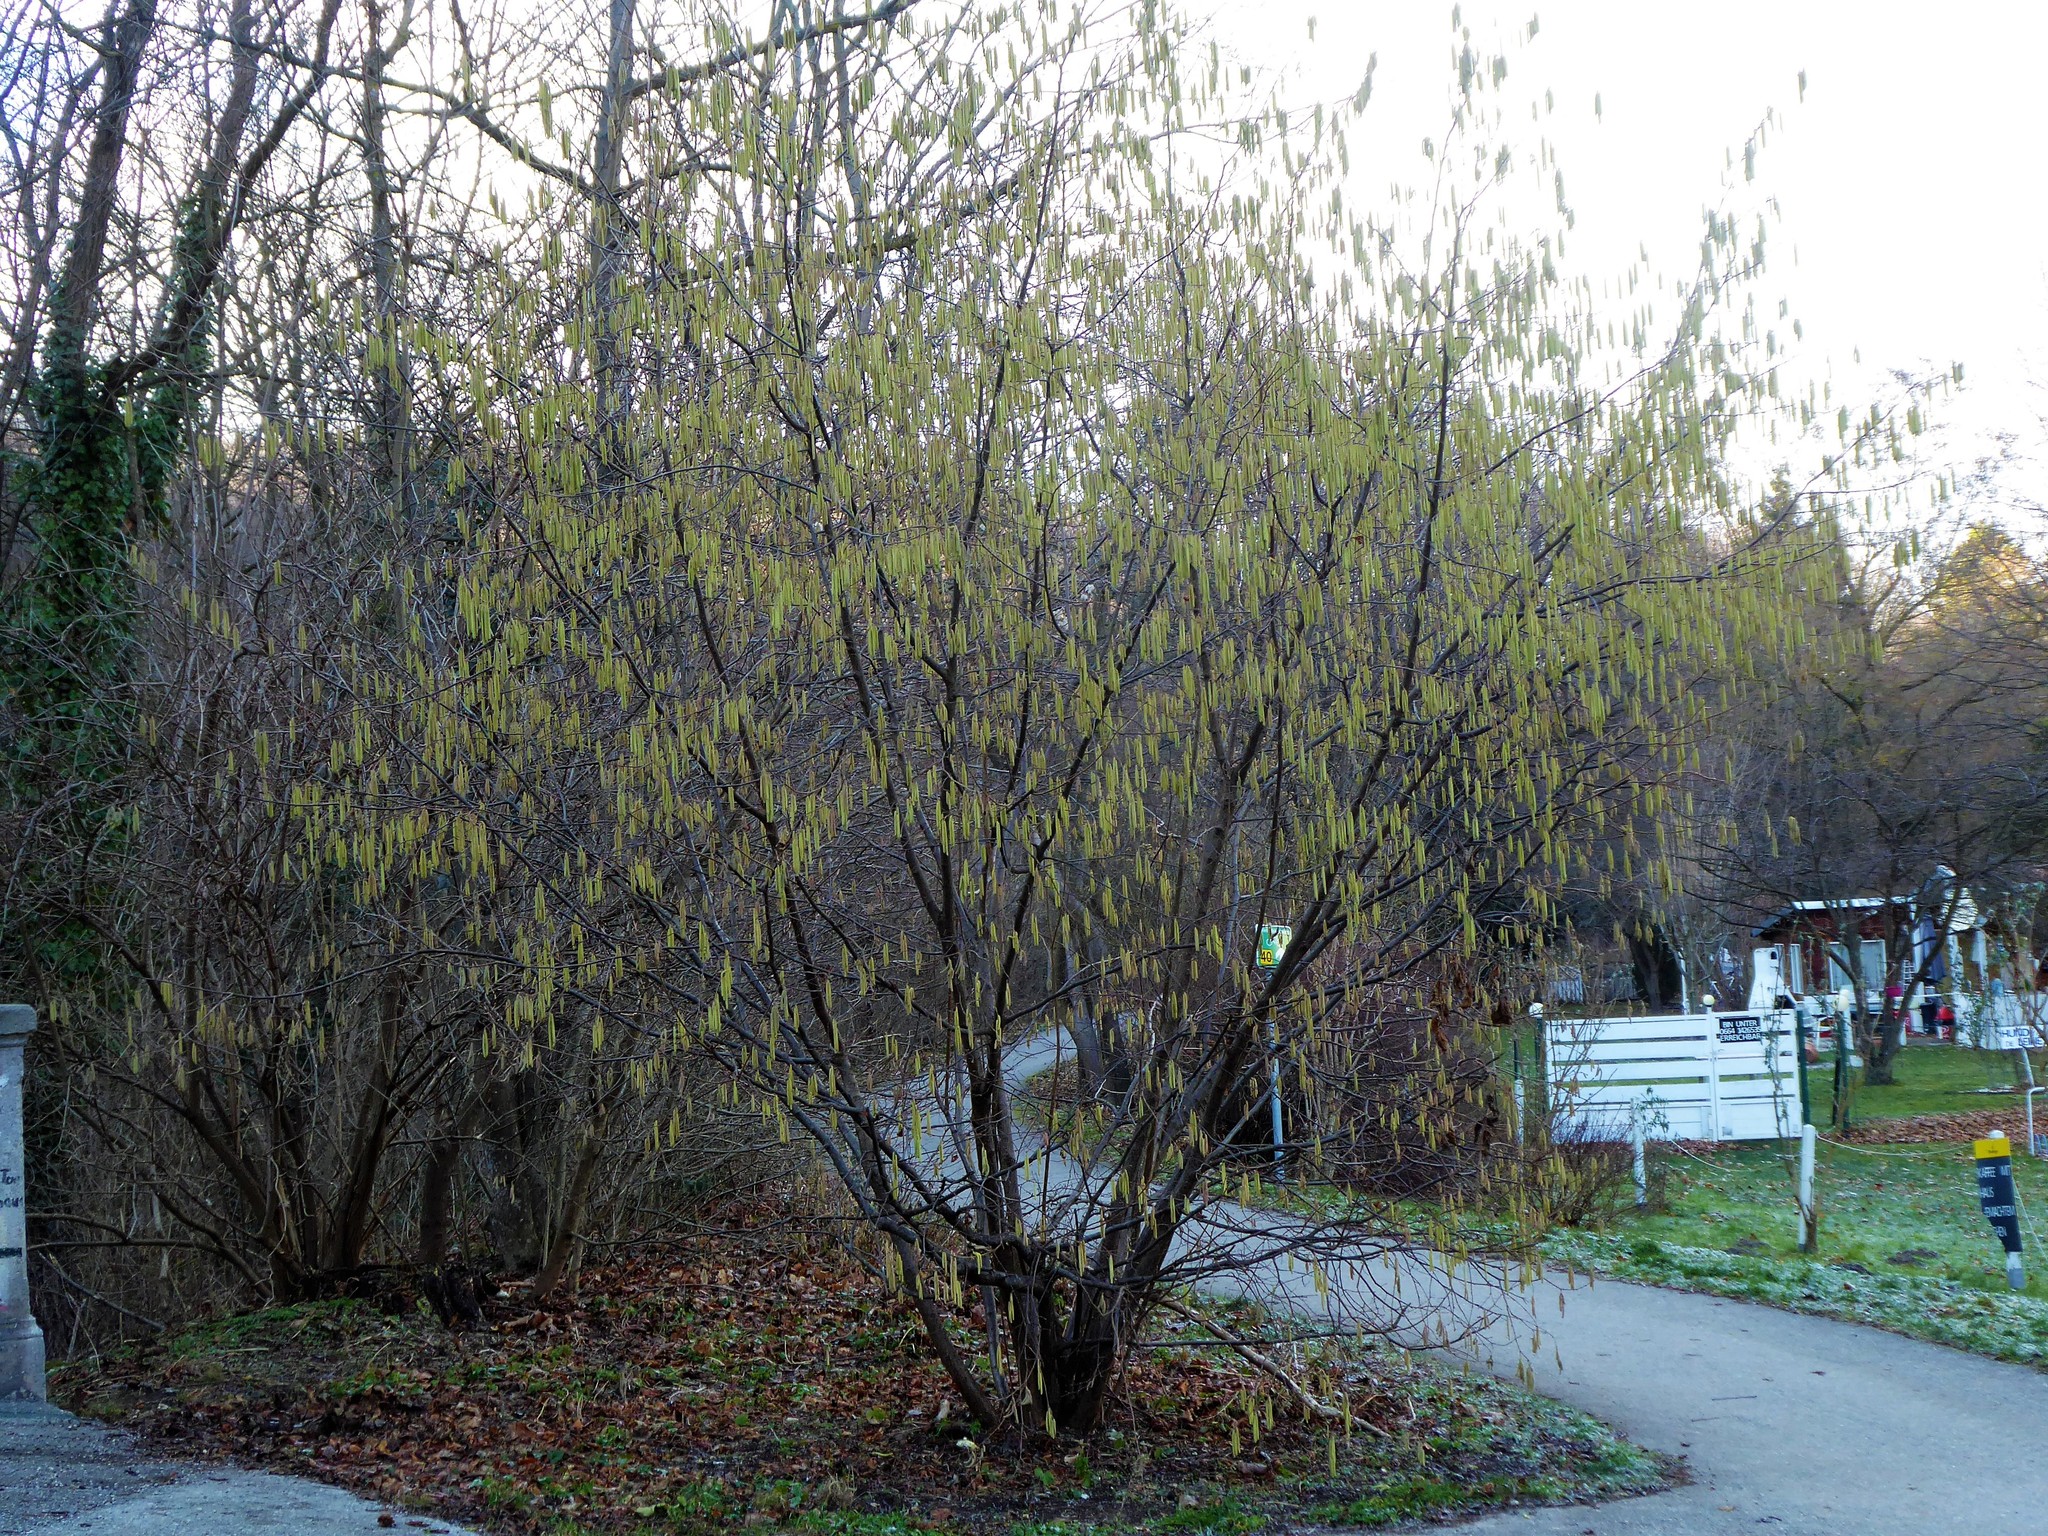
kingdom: Plantae
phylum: Tracheophyta
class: Magnoliopsida
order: Fagales
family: Betulaceae
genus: Corylus
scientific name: Corylus avellana
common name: European hazel
